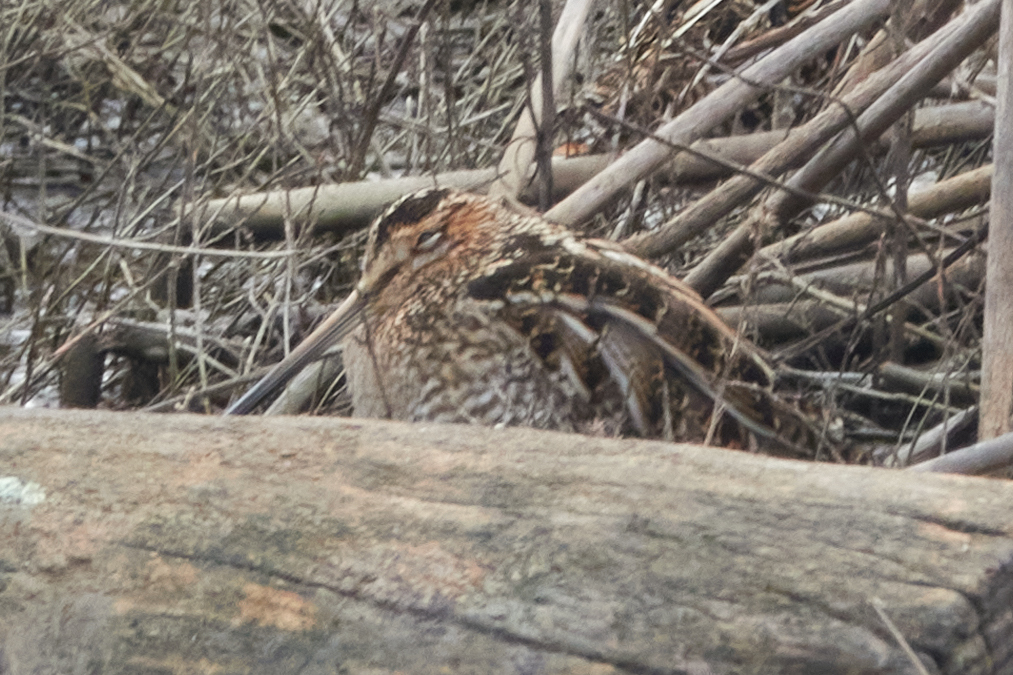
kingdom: Animalia
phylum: Chordata
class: Aves
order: Charadriiformes
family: Scolopacidae
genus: Gallinago
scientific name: Gallinago delicata
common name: Wilson's snipe
